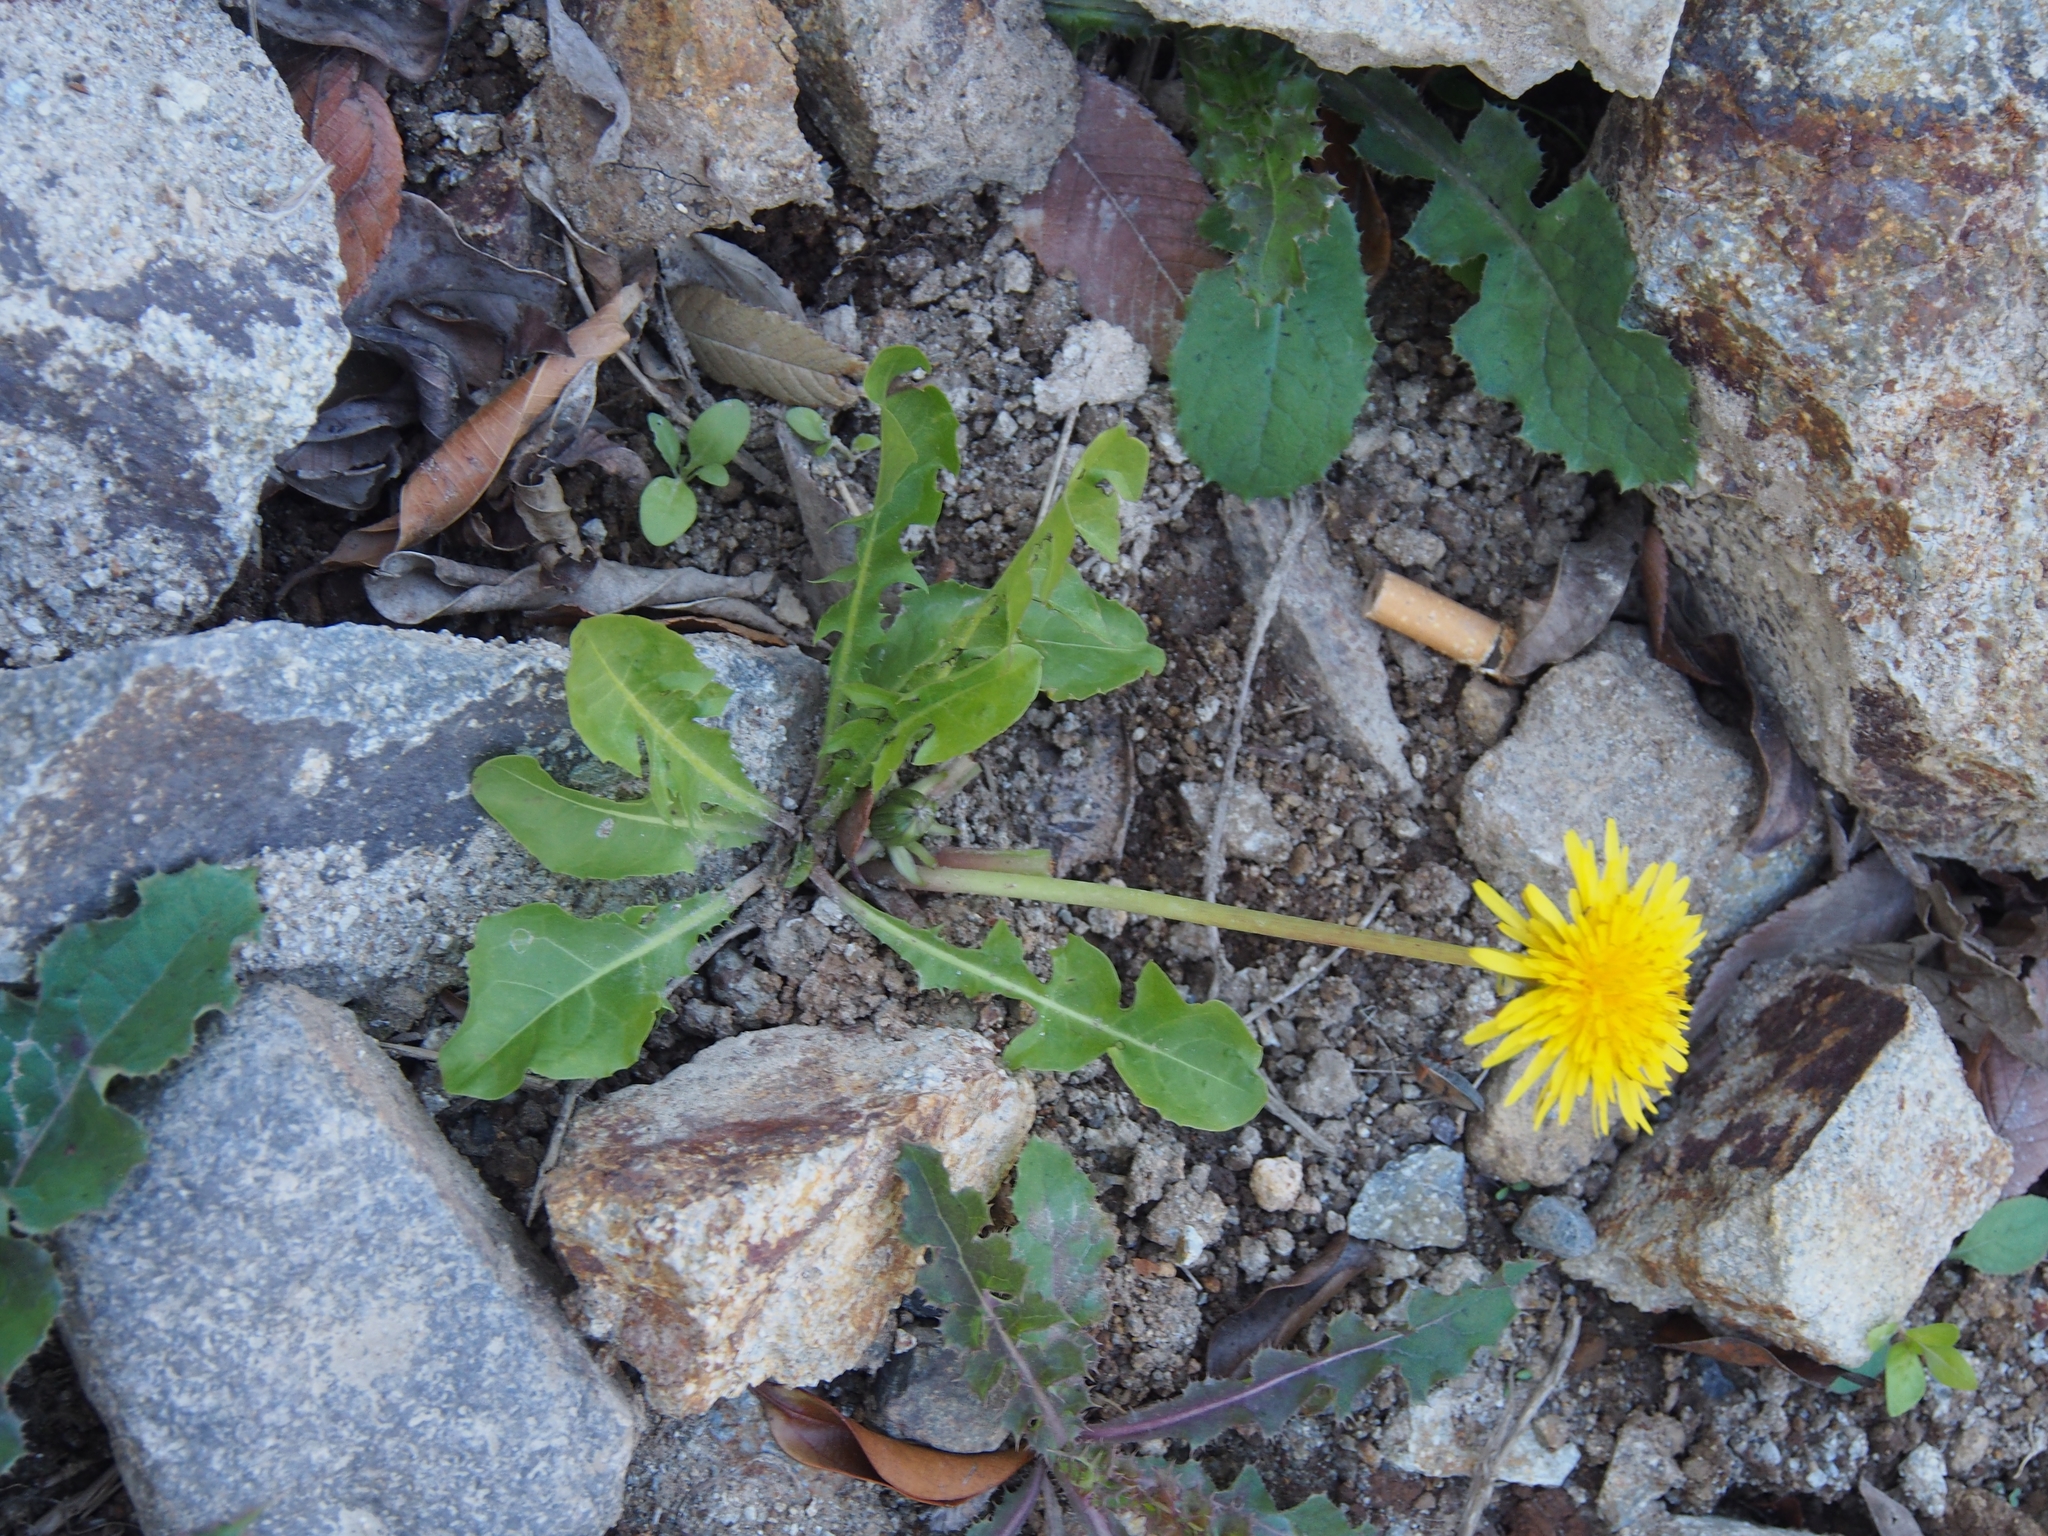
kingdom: Plantae
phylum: Tracheophyta
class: Magnoliopsida
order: Asterales
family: Asteraceae
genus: Taraxacum
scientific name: Taraxacum officinale
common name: Common dandelion
